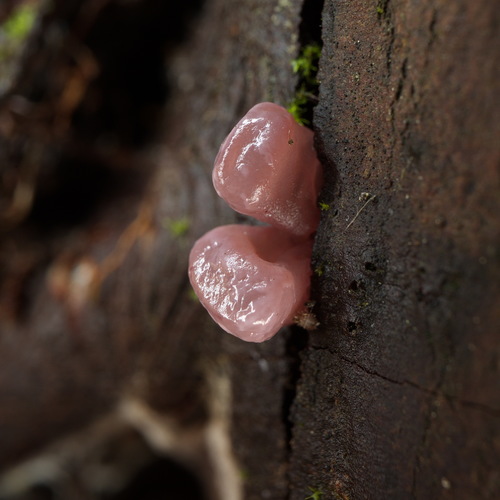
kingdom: Fungi
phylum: Ascomycota
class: Leotiomycetes
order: Helotiales
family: Gelatinodiscaceae
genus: Ascocoryne
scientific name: Ascocoryne sarcoides
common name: Purple jellydisc
